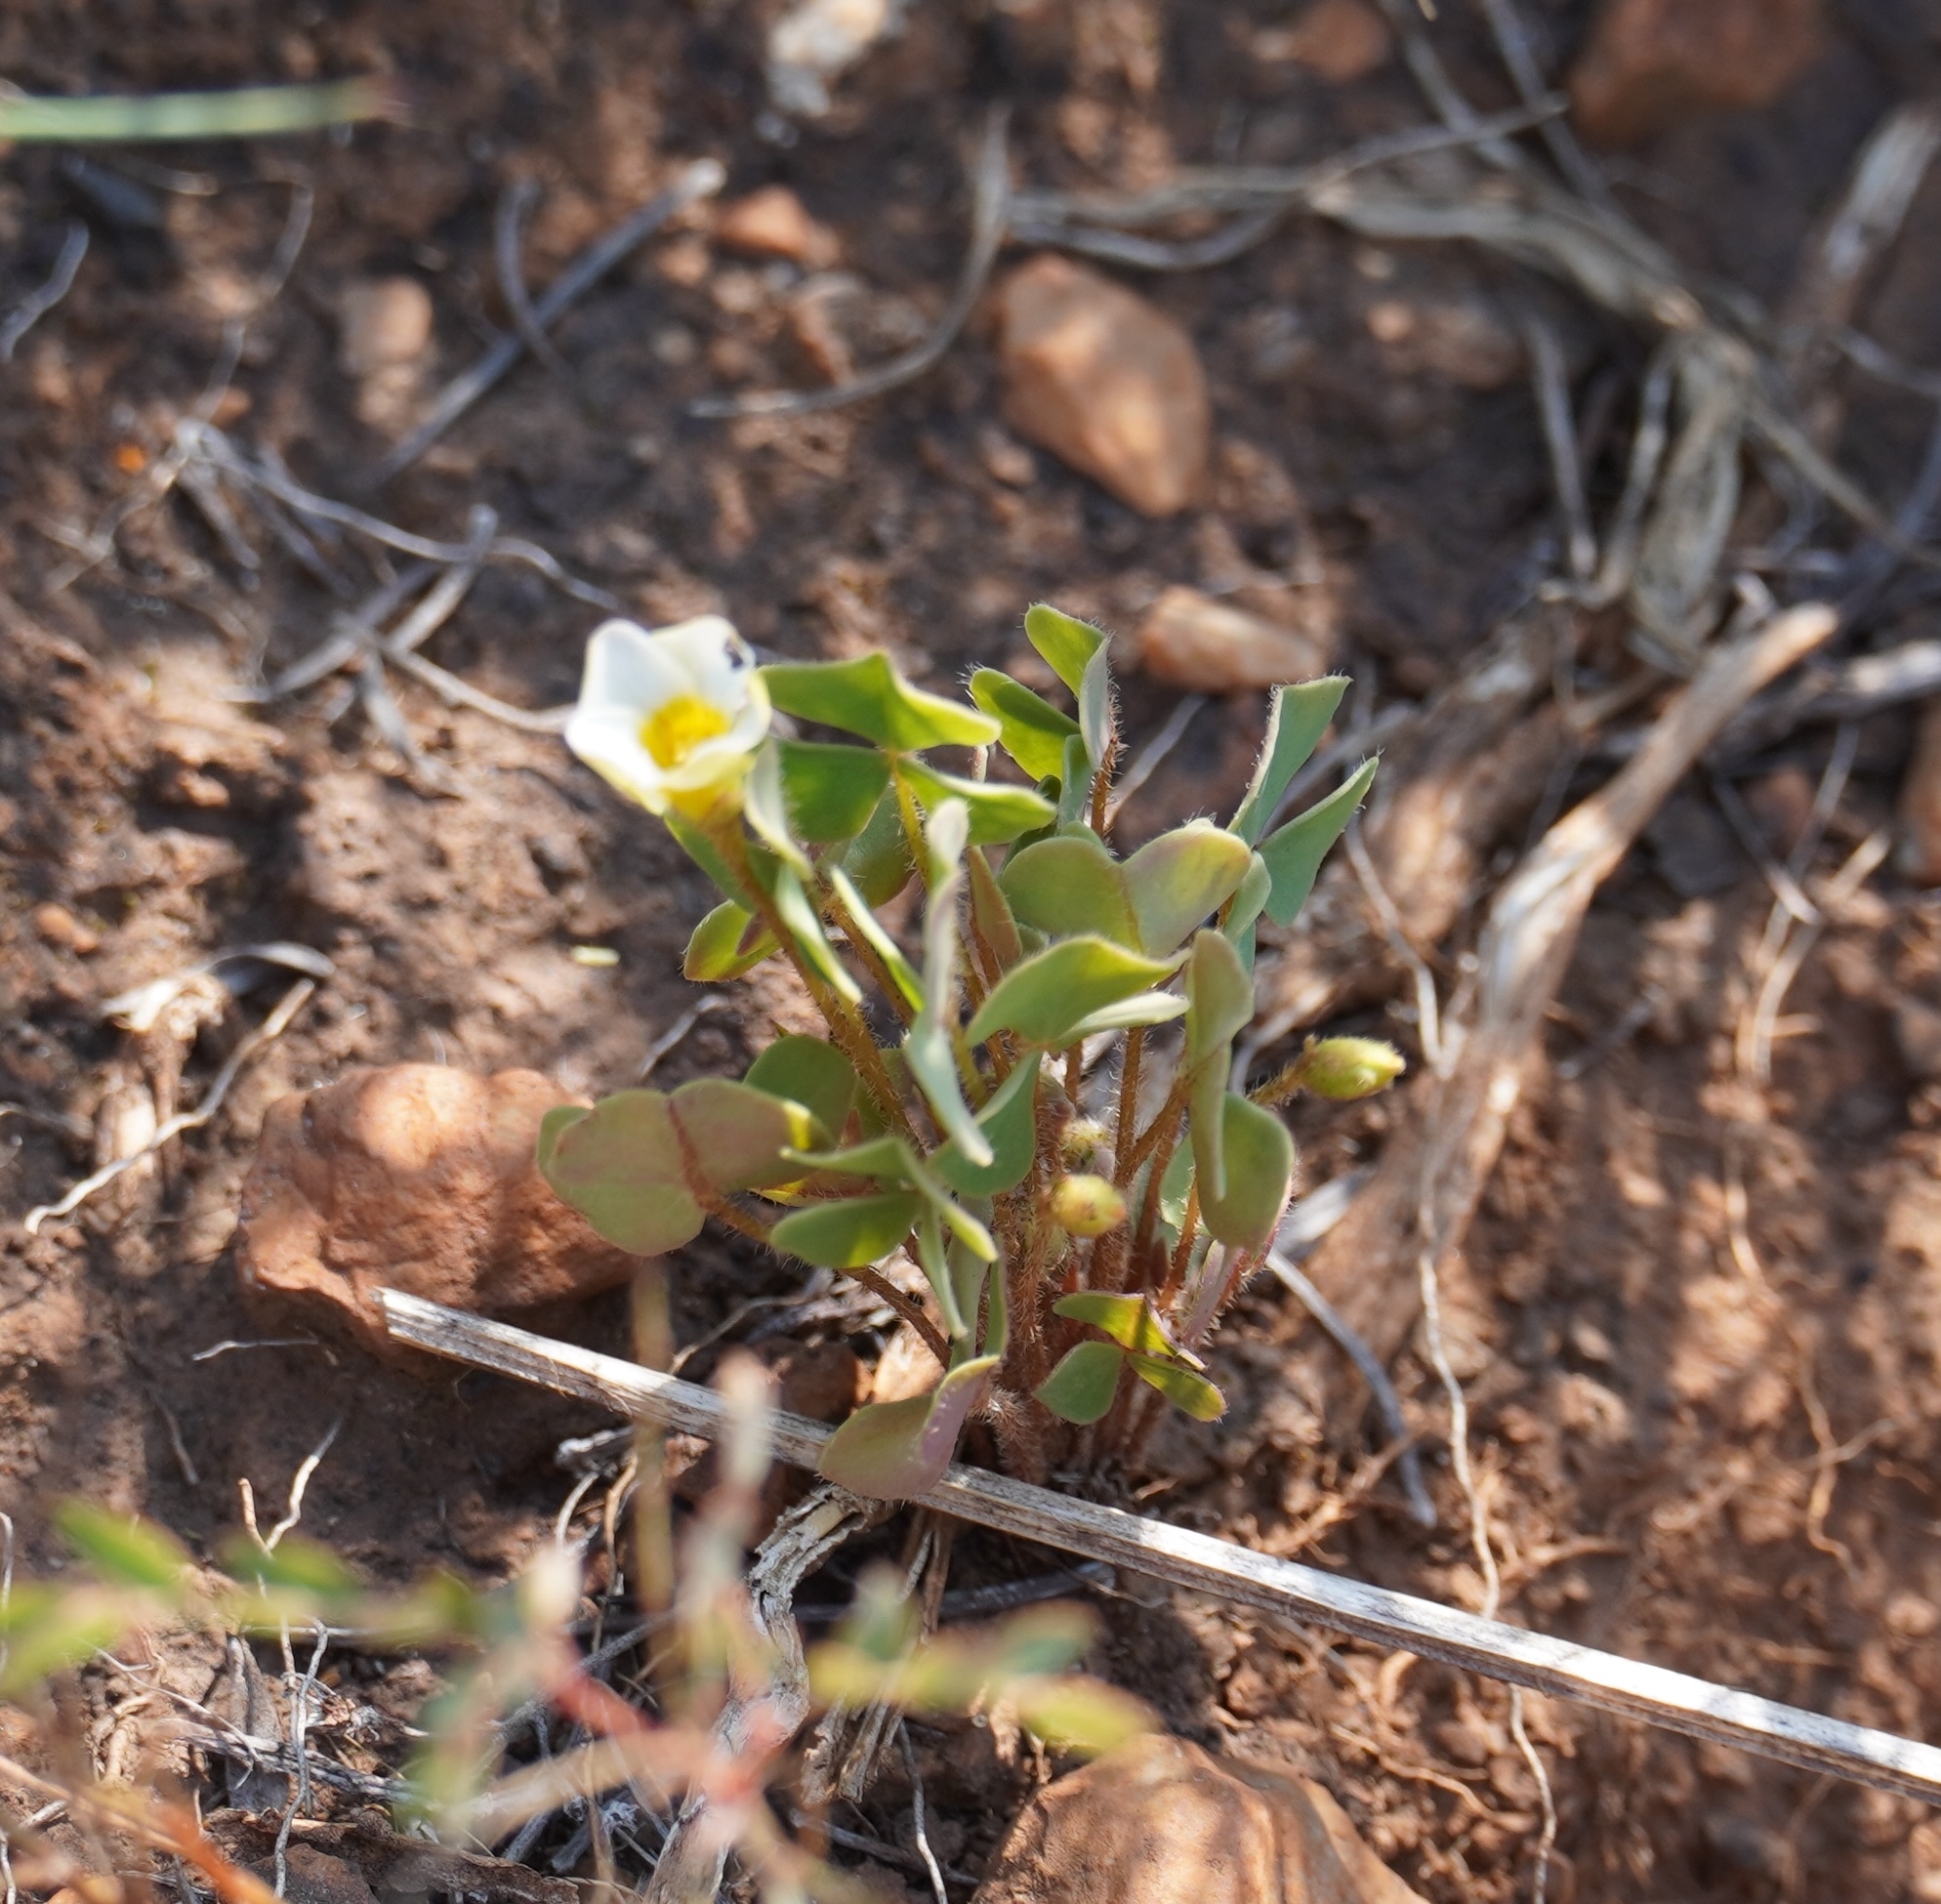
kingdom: Plantae
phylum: Tracheophyta
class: Magnoliopsida
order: Oxalidales
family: Oxalidaceae
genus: Oxalis
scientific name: Oxalis obliquifolia
